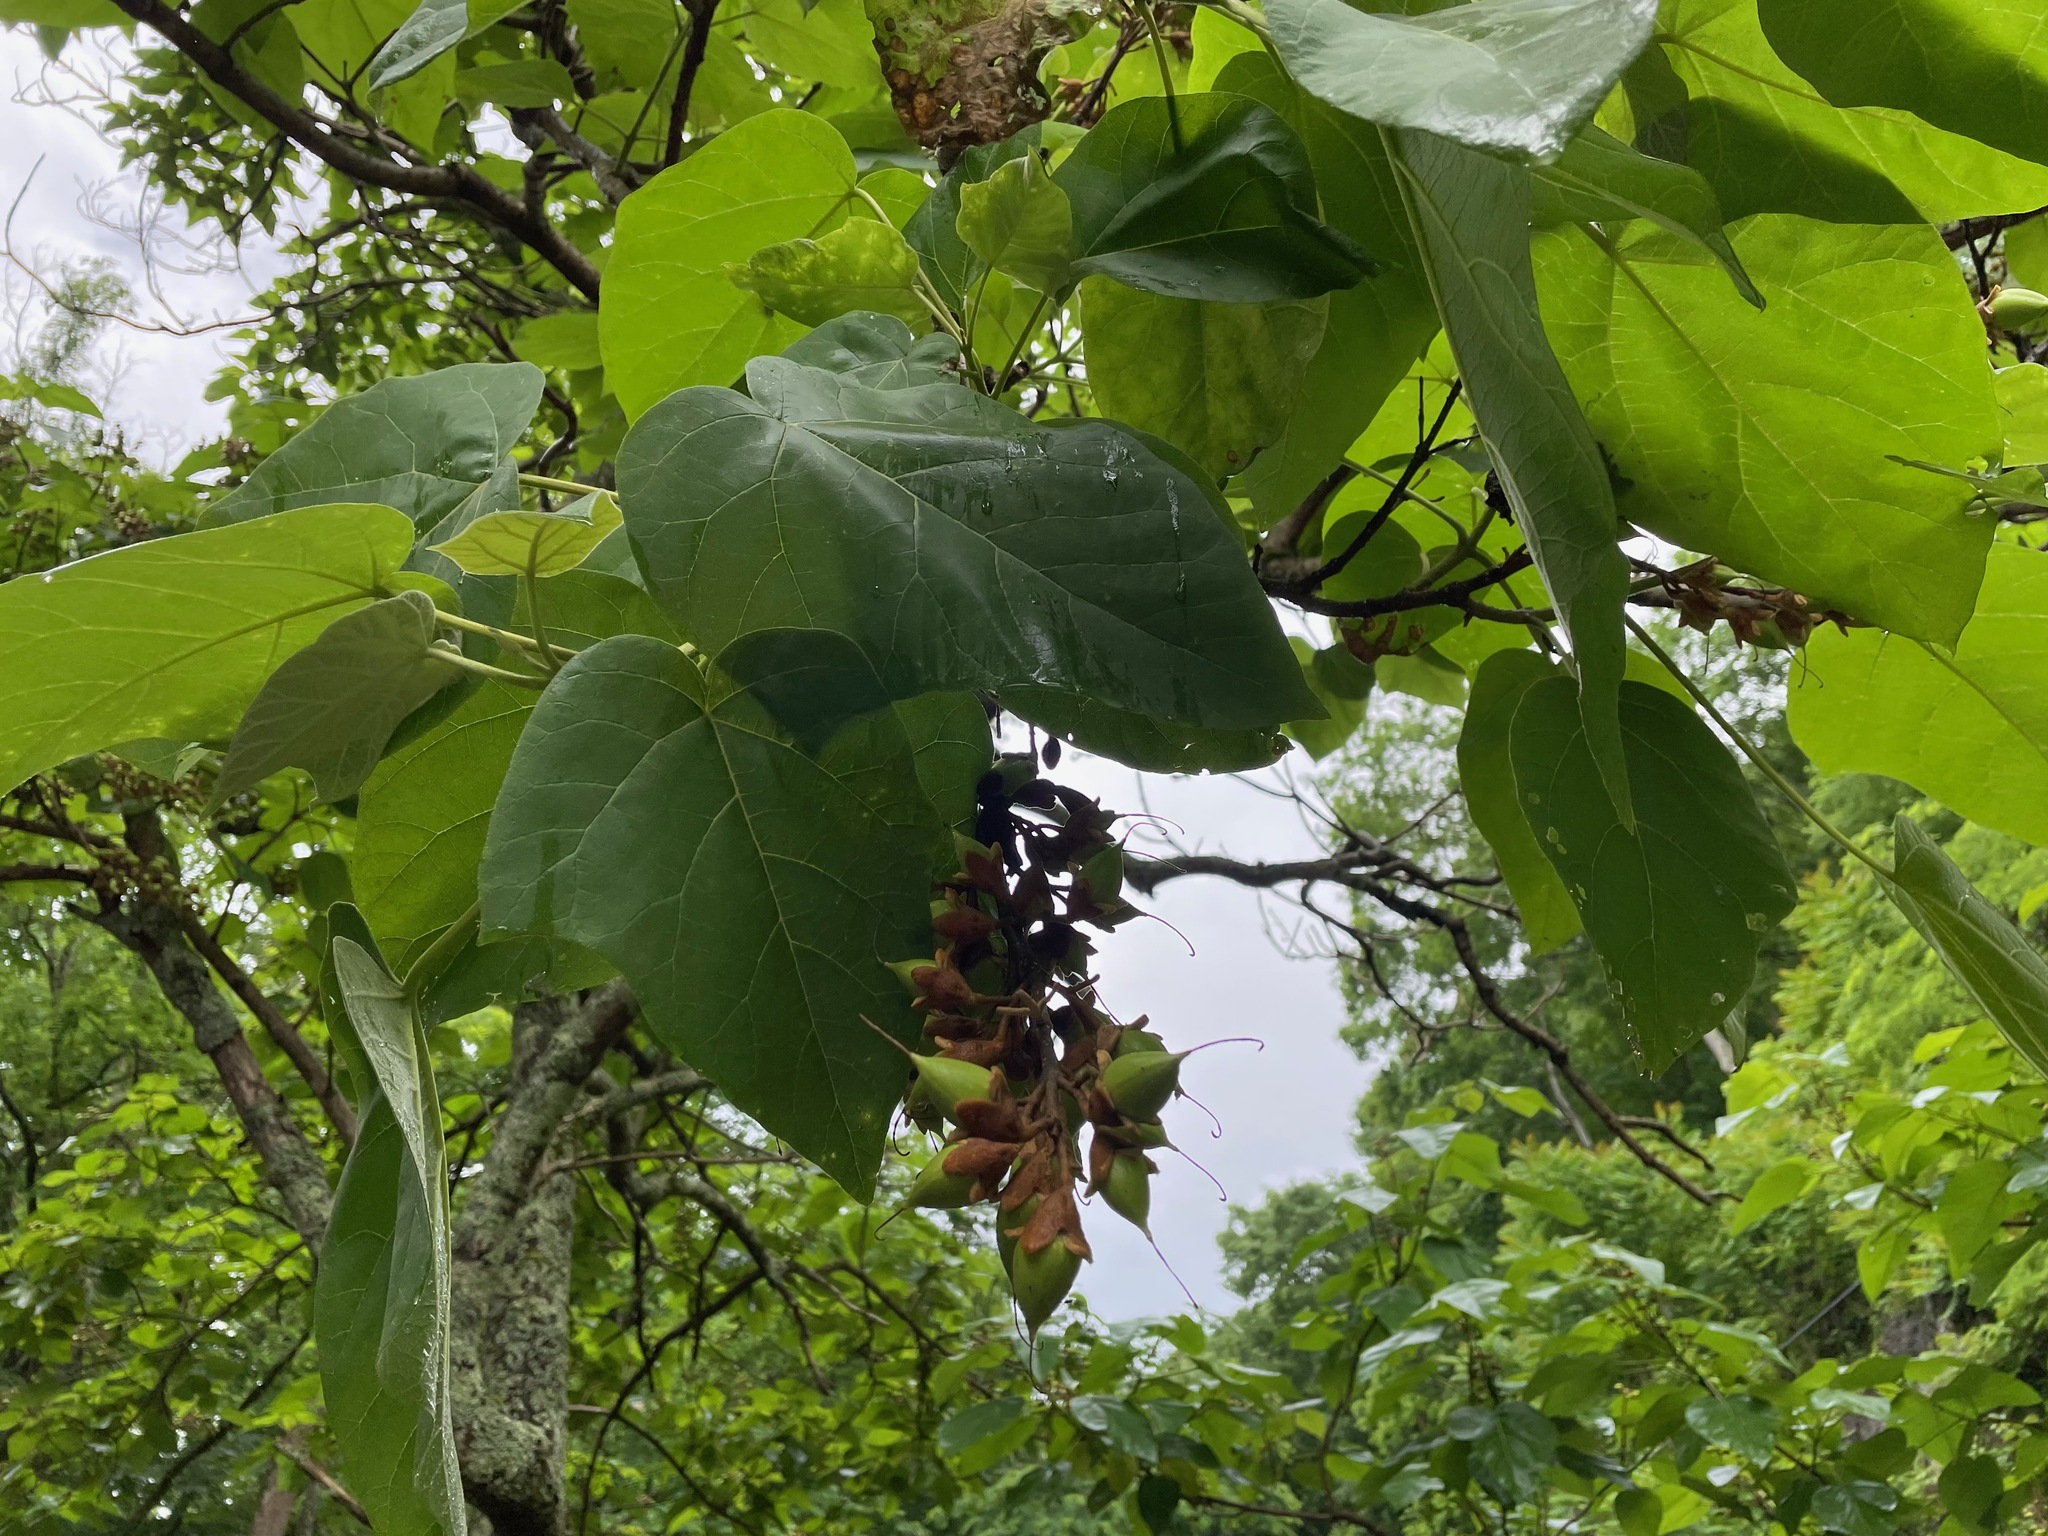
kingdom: Plantae
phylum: Tracheophyta
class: Magnoliopsida
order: Lamiales
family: Paulowniaceae
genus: Paulownia
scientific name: Paulownia tomentosa
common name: Foxglove-tree
